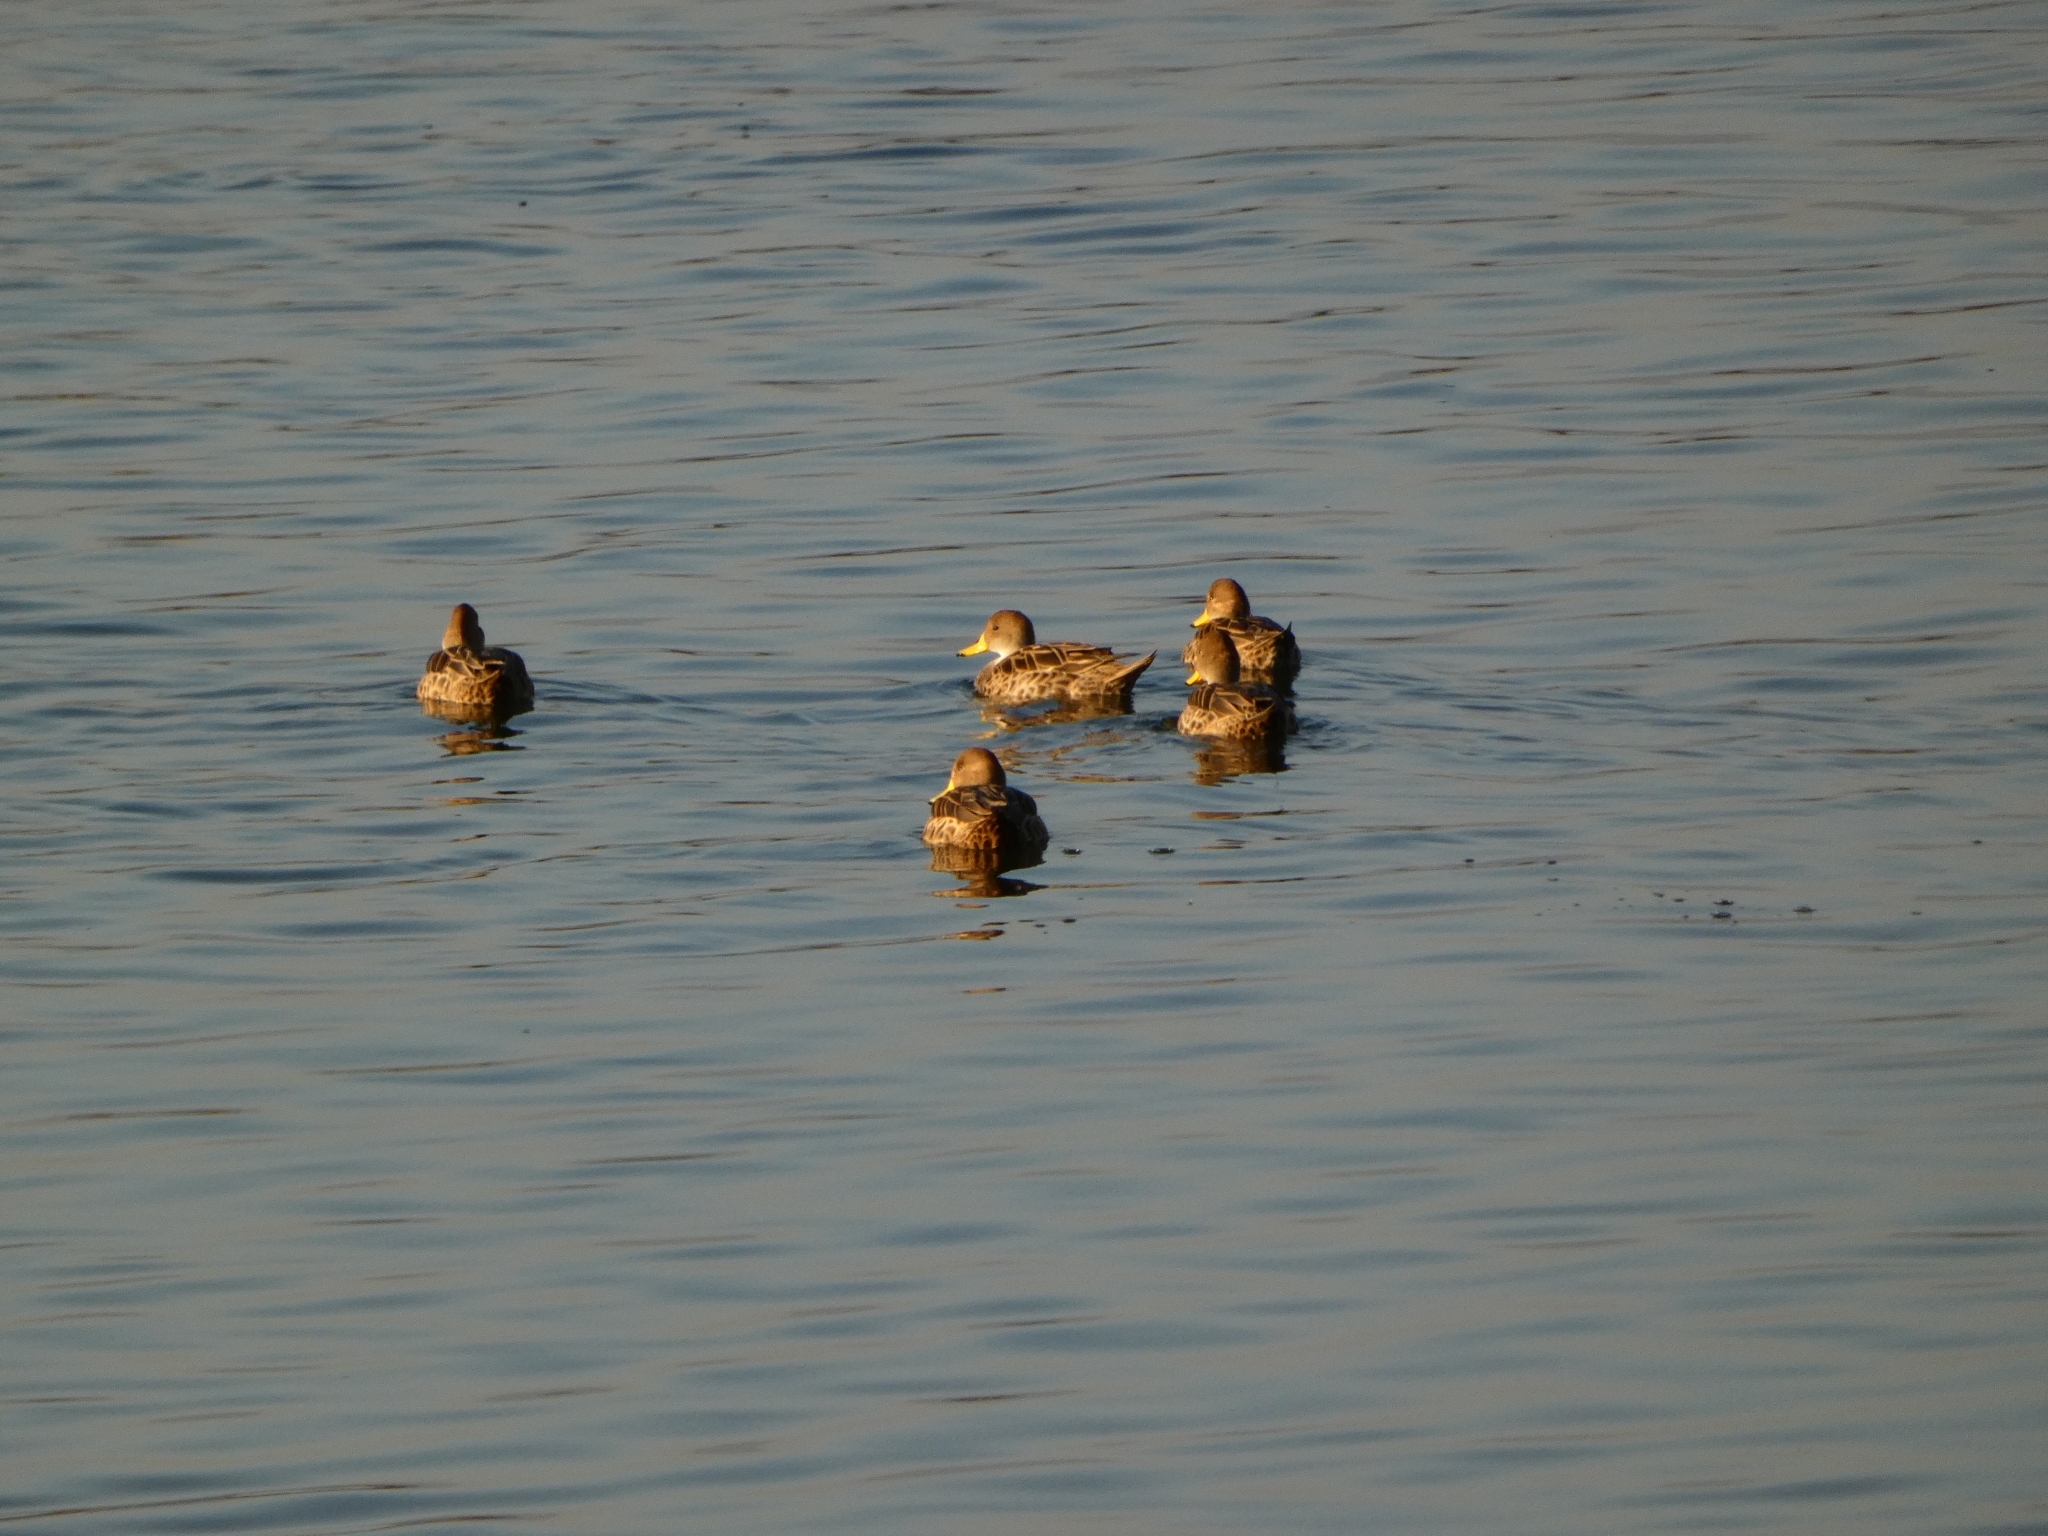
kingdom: Animalia
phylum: Chordata
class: Aves
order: Anseriformes
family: Anatidae
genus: Anas
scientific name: Anas georgica
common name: Yellow-billed pintail
